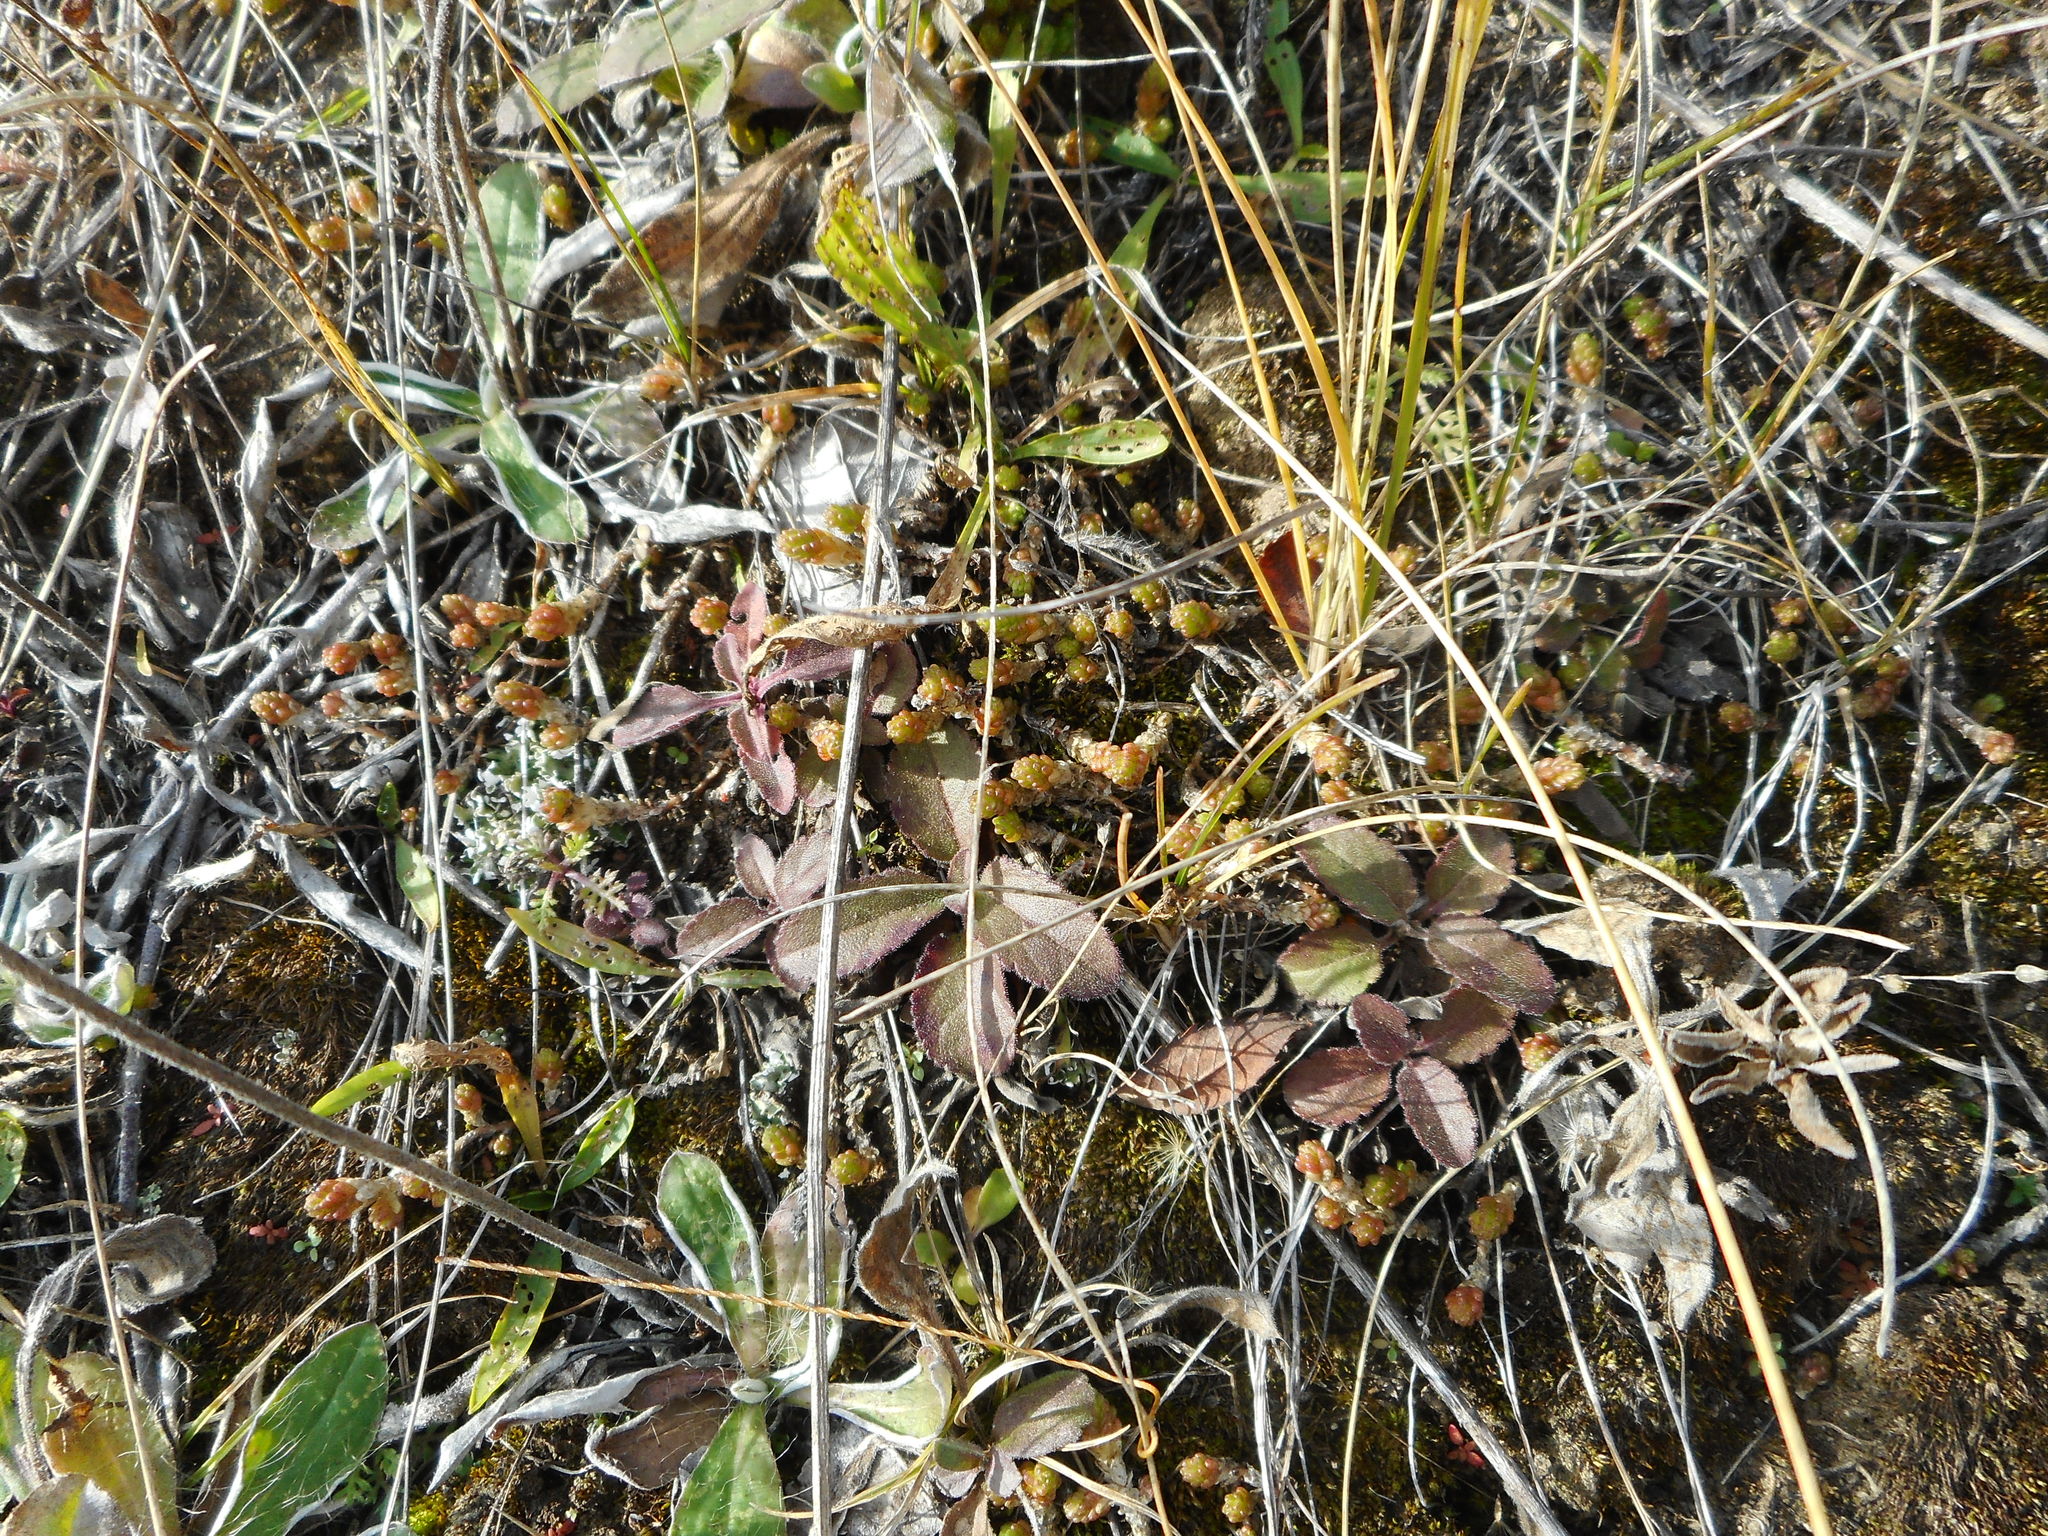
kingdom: Plantae
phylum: Tracheophyta
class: Magnoliopsida
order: Saxifragales
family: Crassulaceae
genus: Sedum
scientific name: Sedum acre
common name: Biting stonecrop
